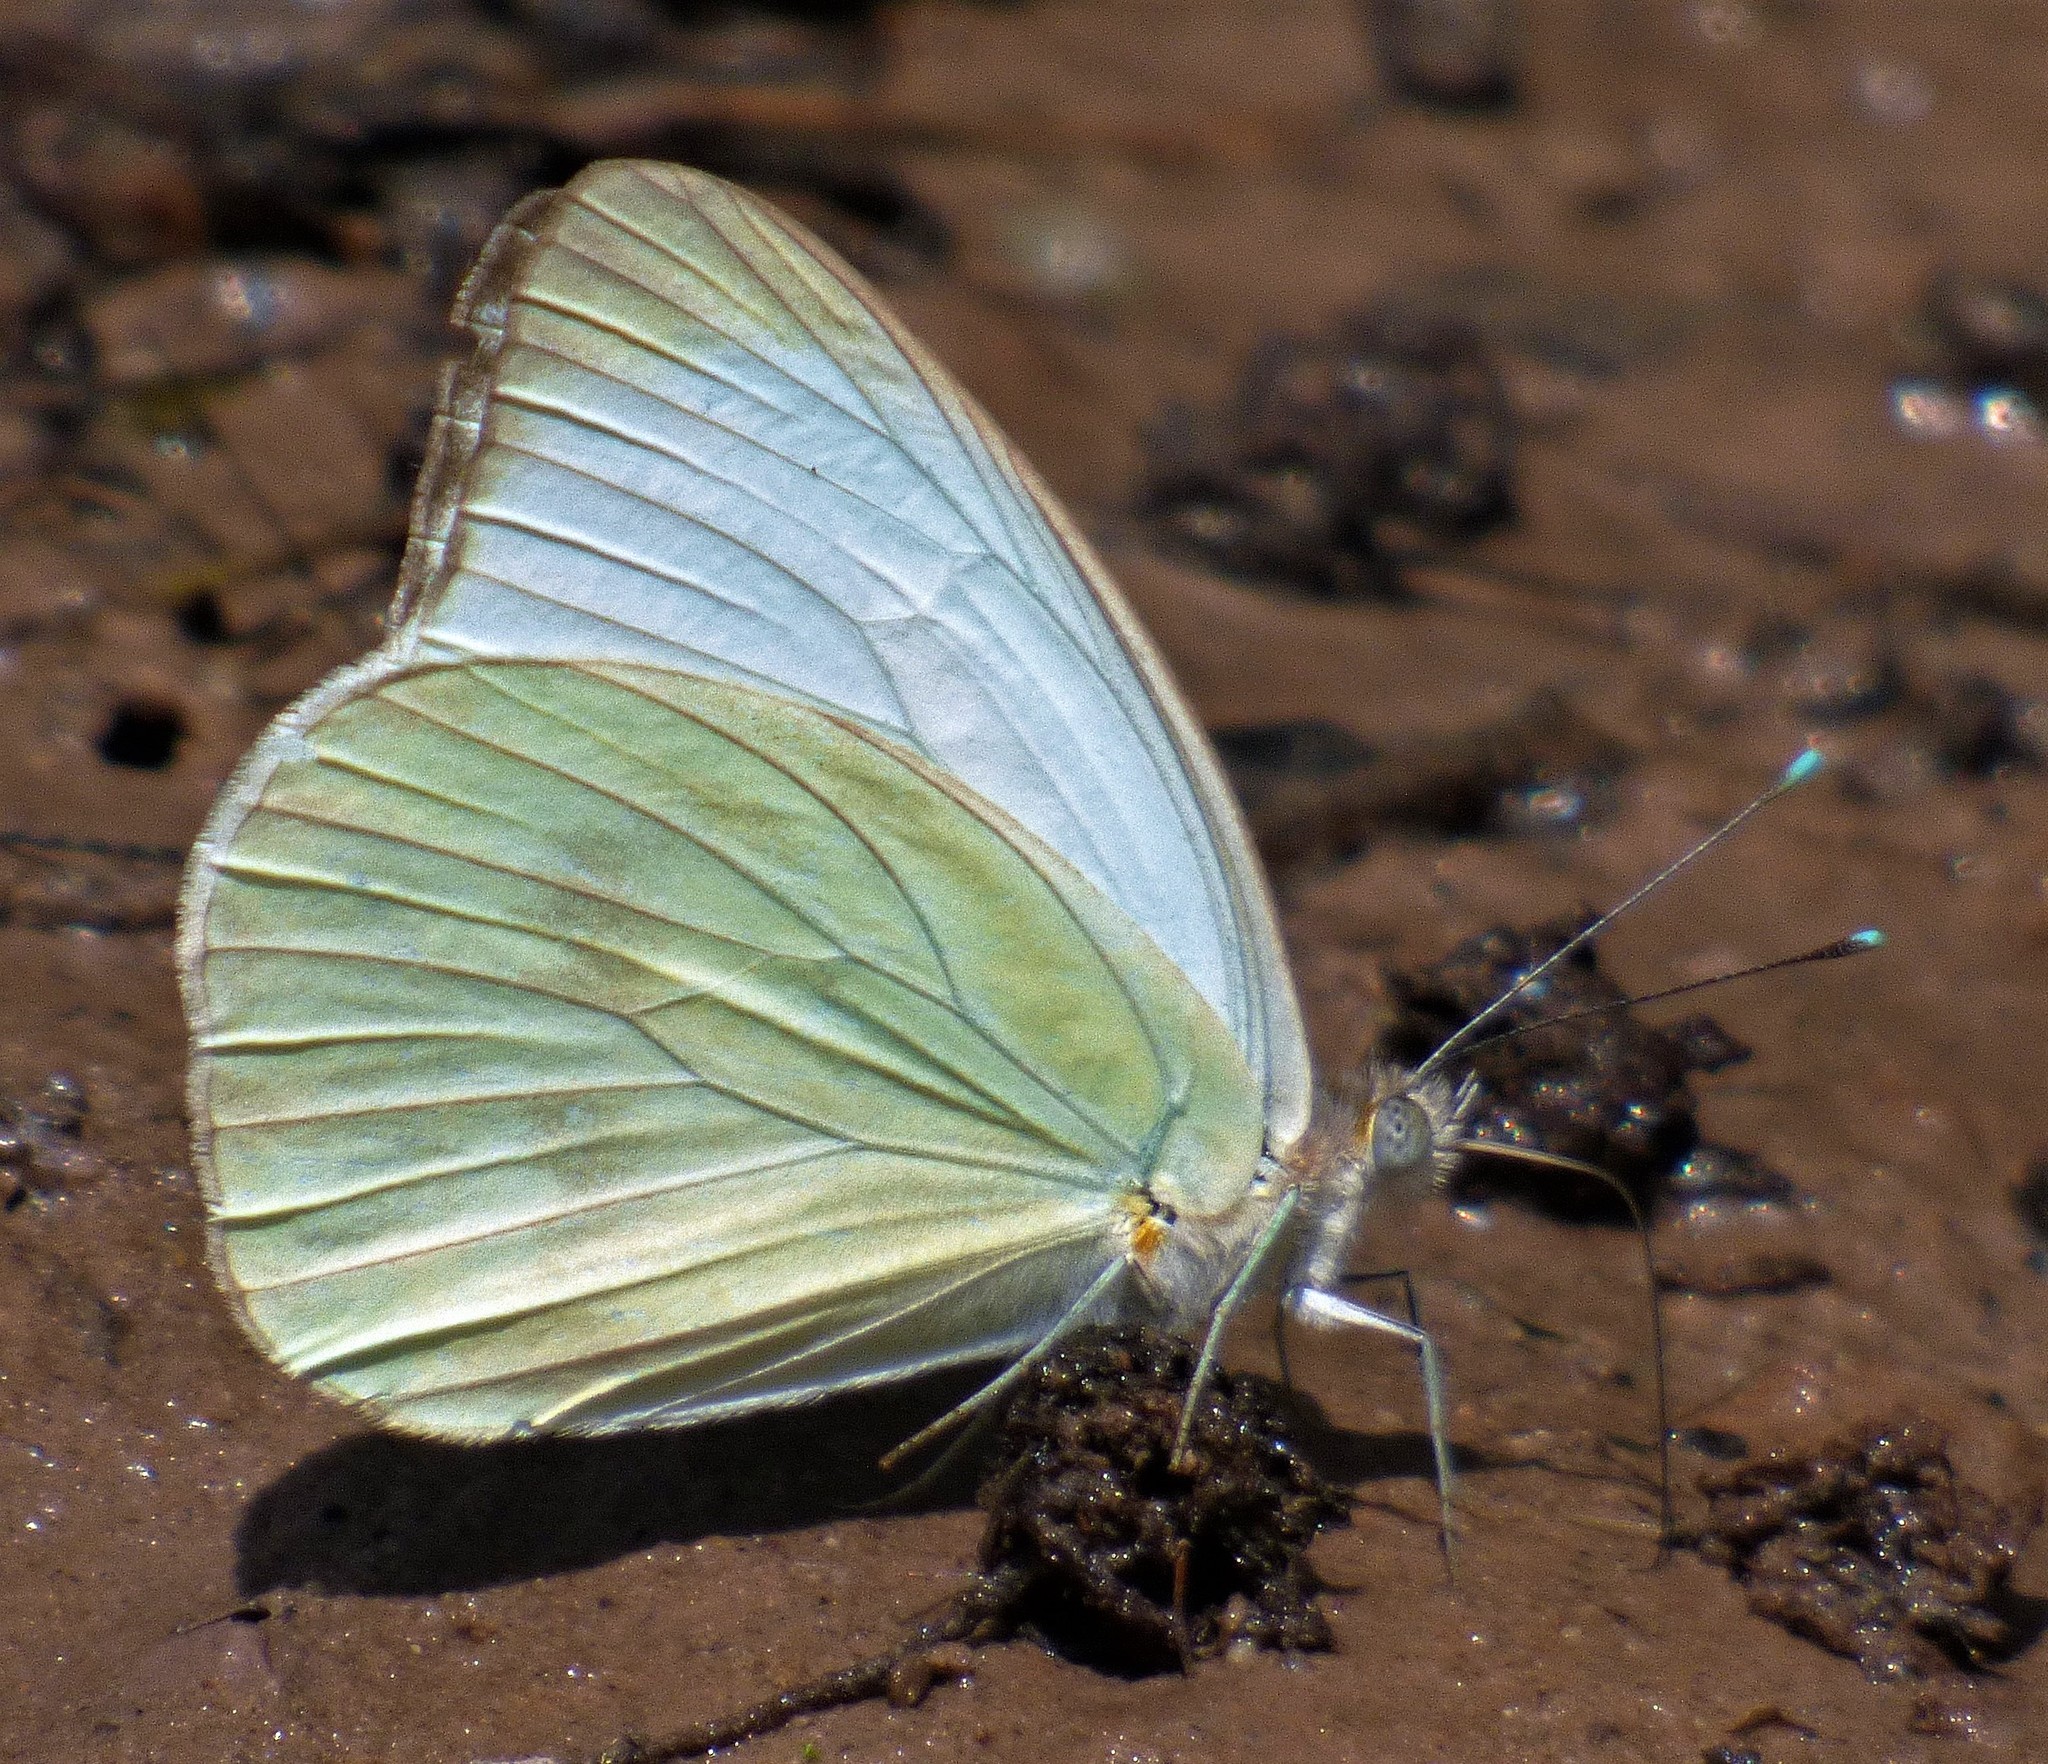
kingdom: Animalia
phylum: Arthropoda
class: Insecta
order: Lepidoptera
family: Pieridae
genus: Ascia
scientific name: Ascia monuste
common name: Great southern white
